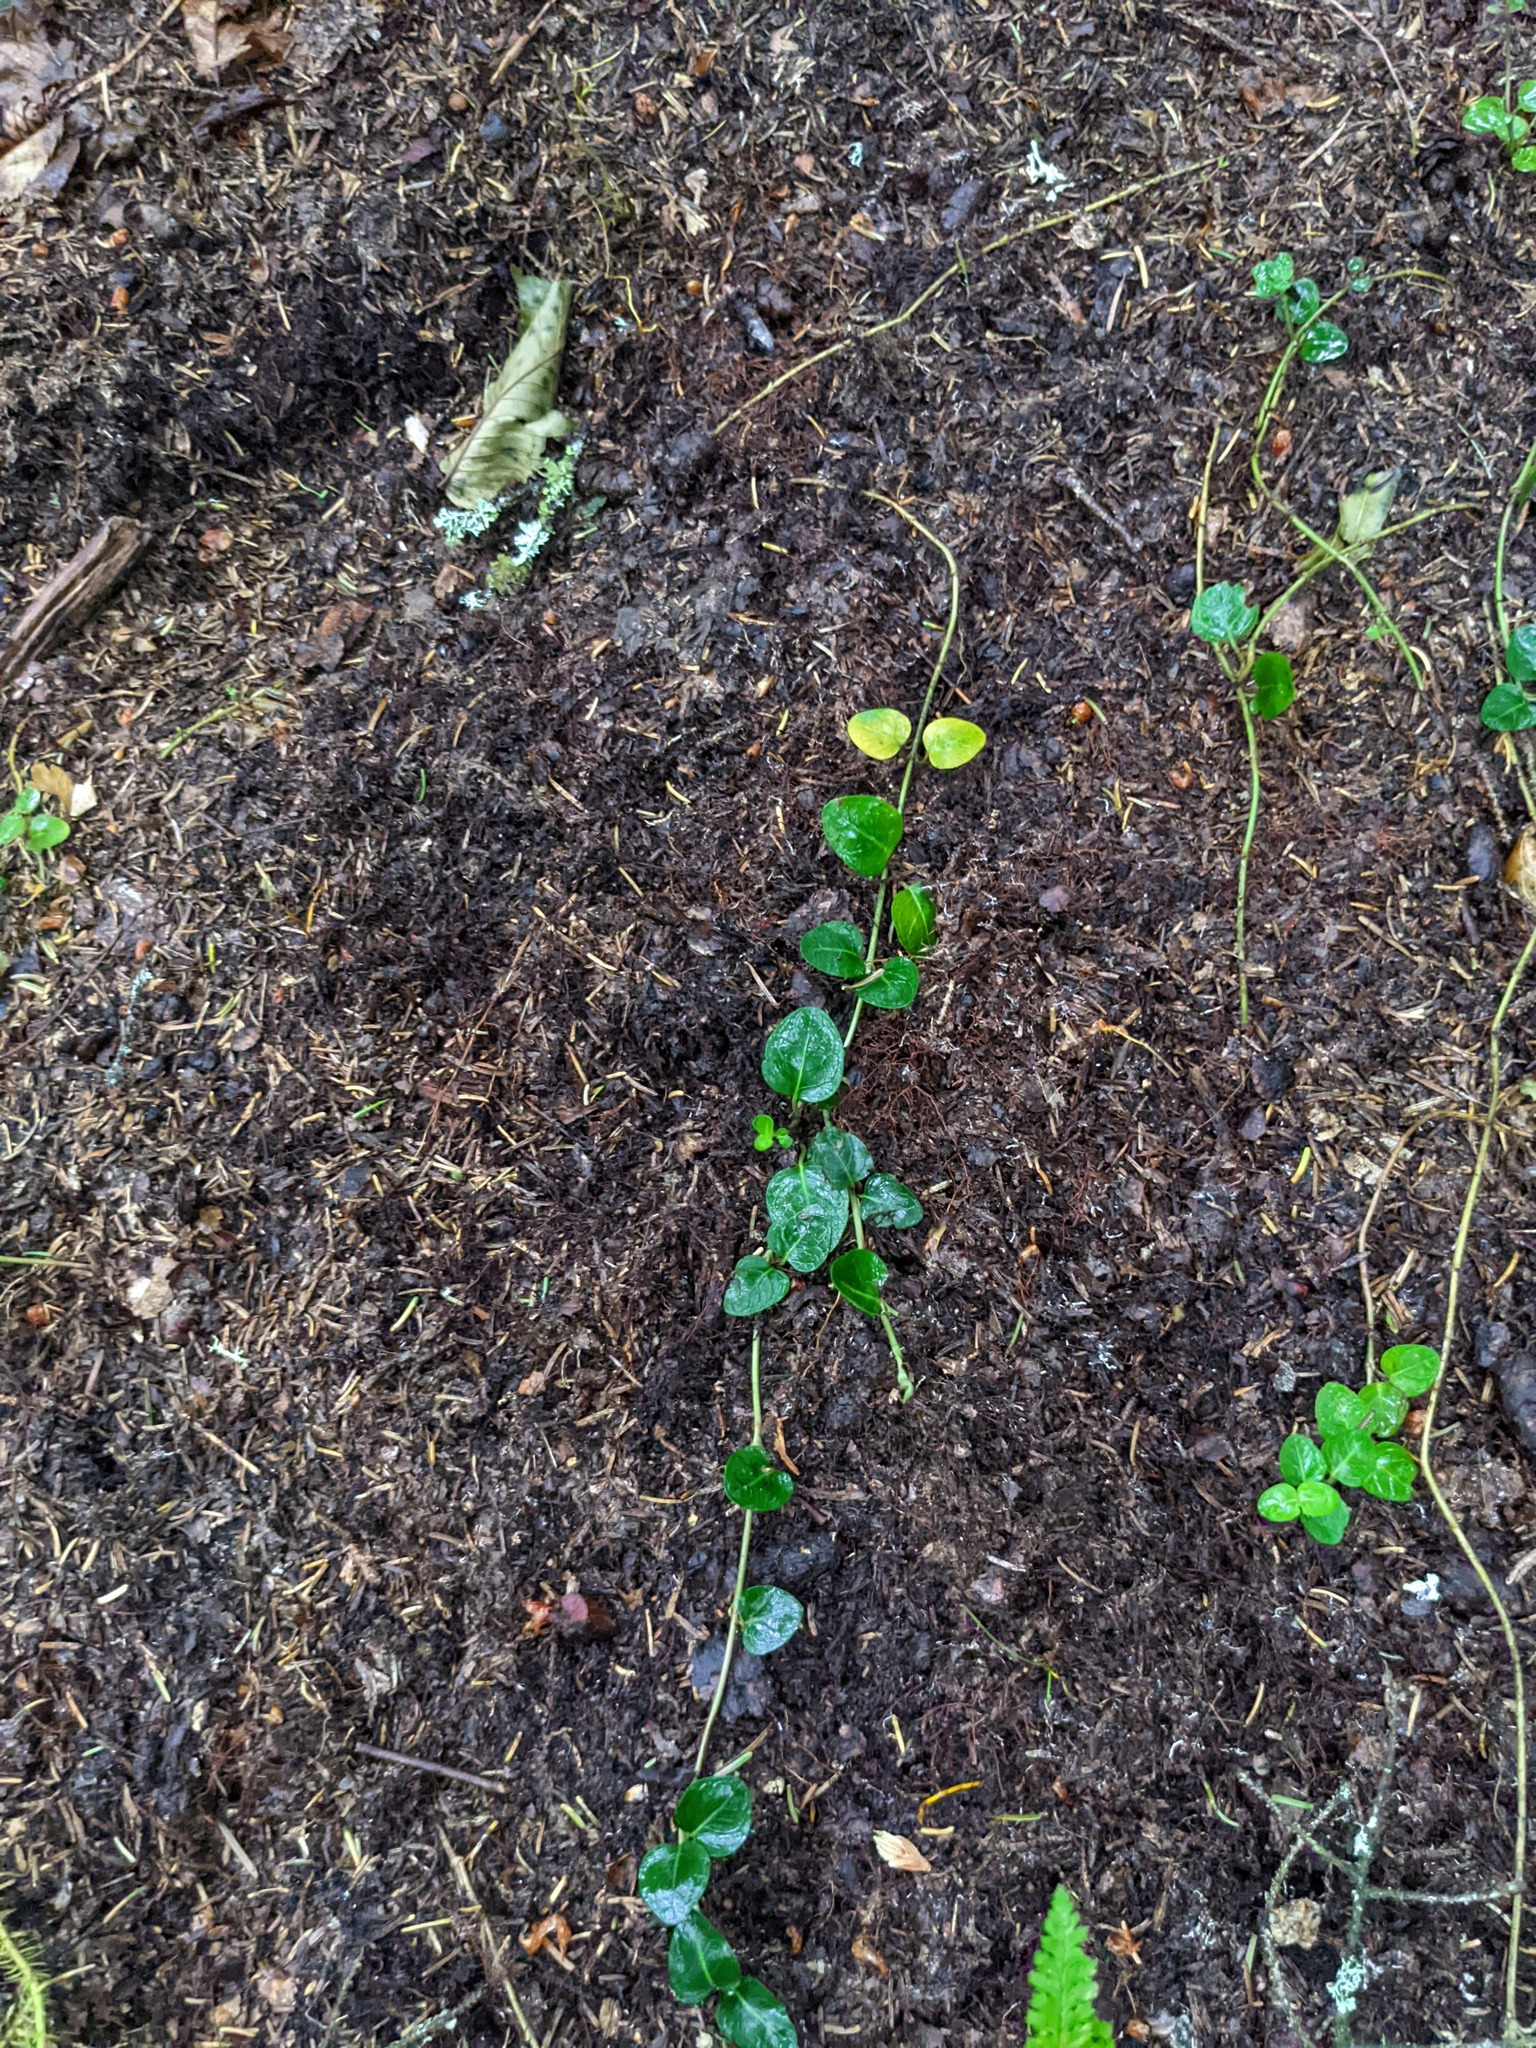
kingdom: Plantae
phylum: Tracheophyta
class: Magnoliopsida
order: Gentianales
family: Rubiaceae
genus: Mitchella
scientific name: Mitchella repens
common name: Partridge-berry
